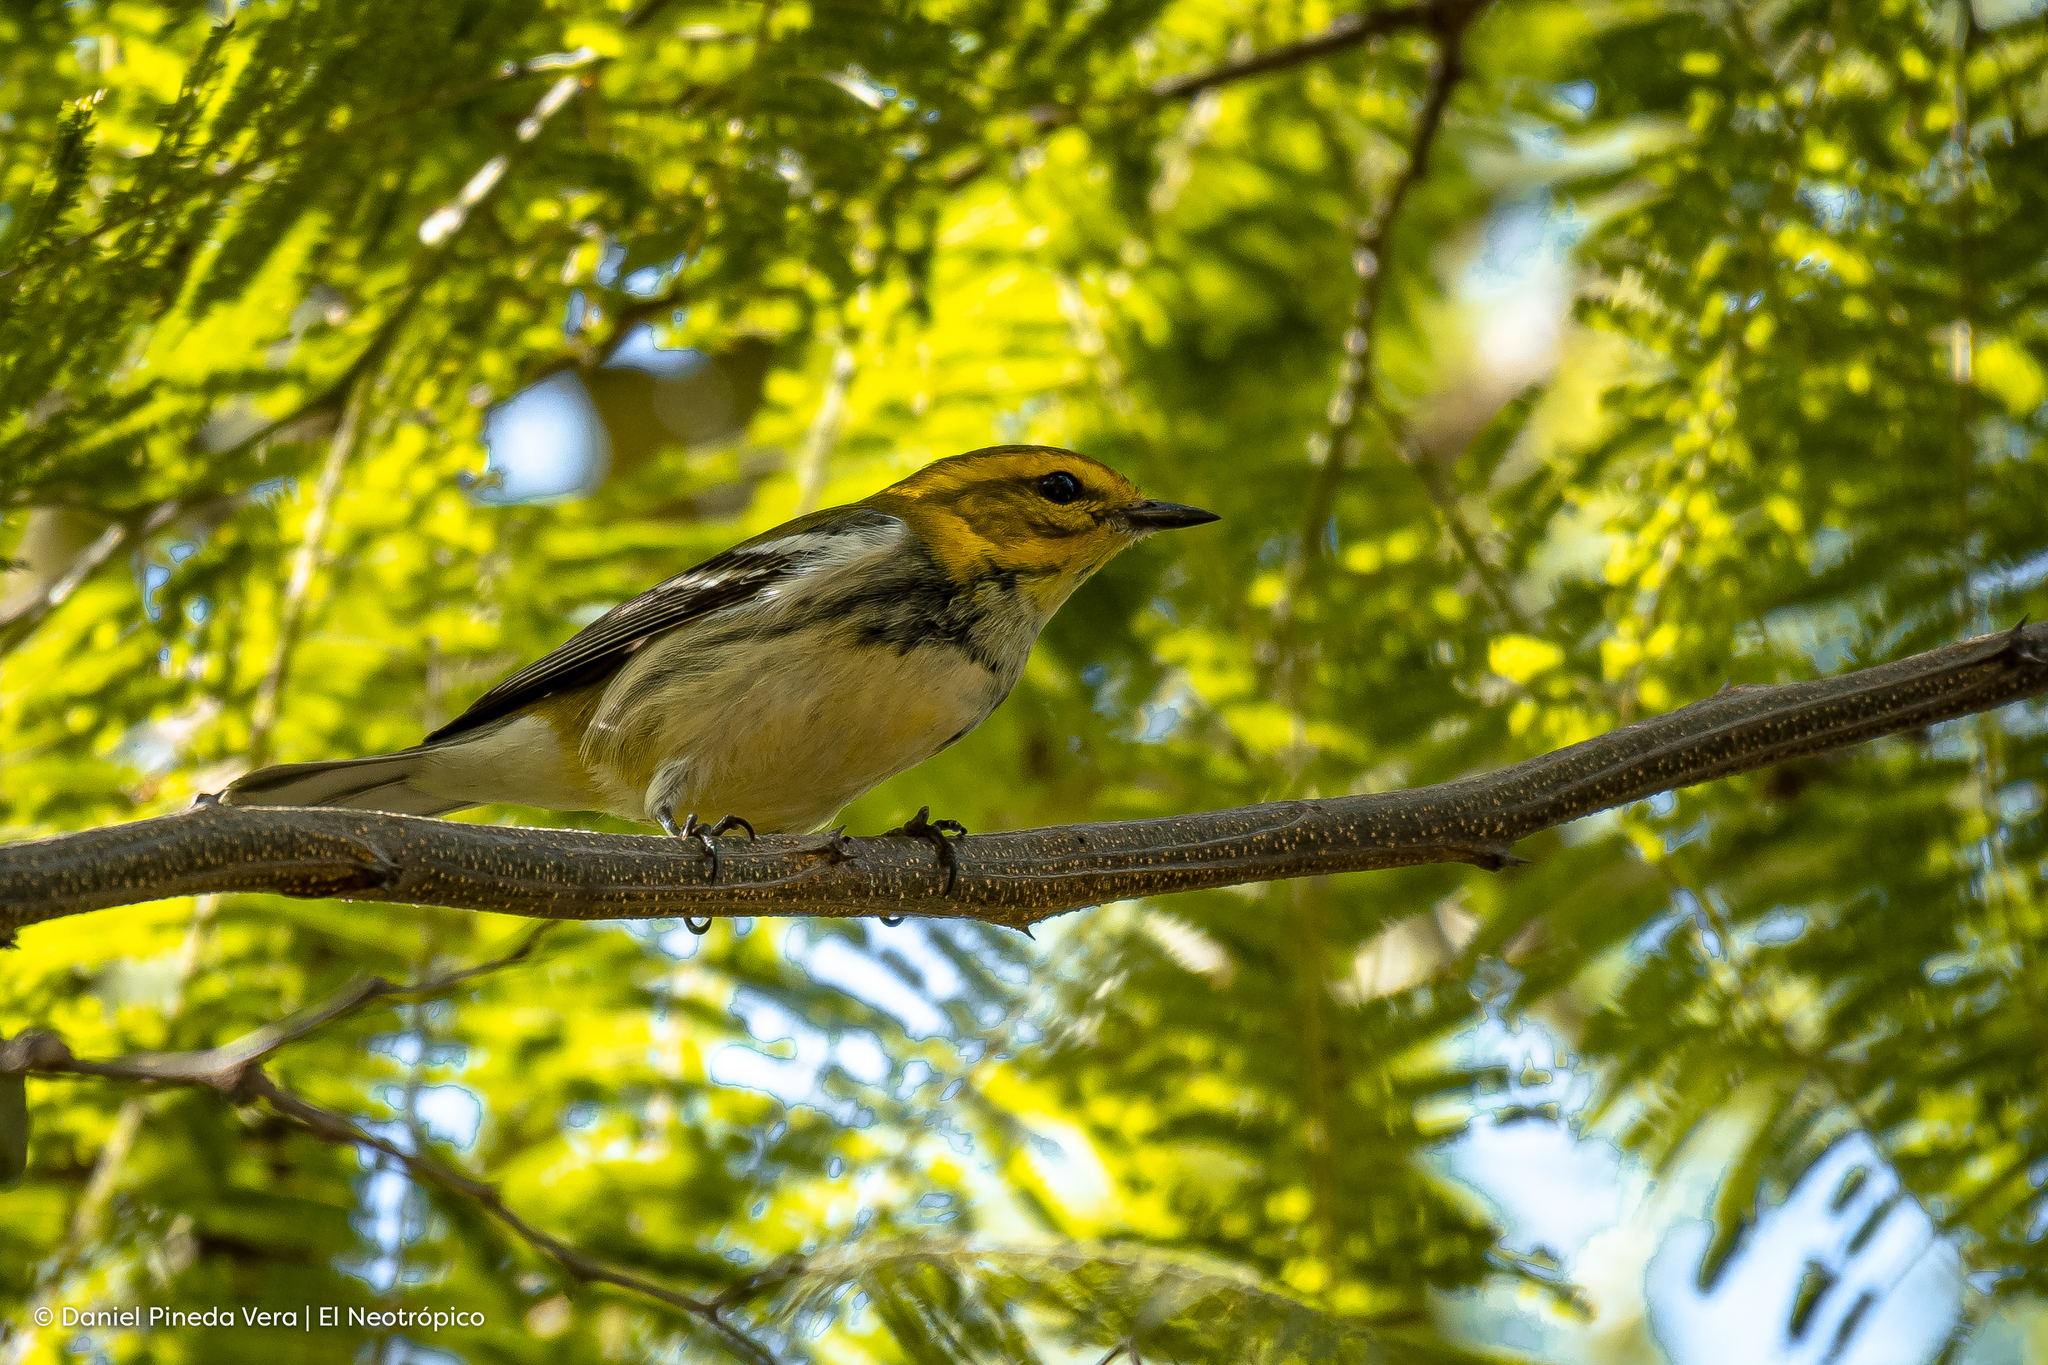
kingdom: Animalia
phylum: Chordata
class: Aves
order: Passeriformes
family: Parulidae
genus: Setophaga
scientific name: Setophaga virens
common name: Black-throated green warbler
